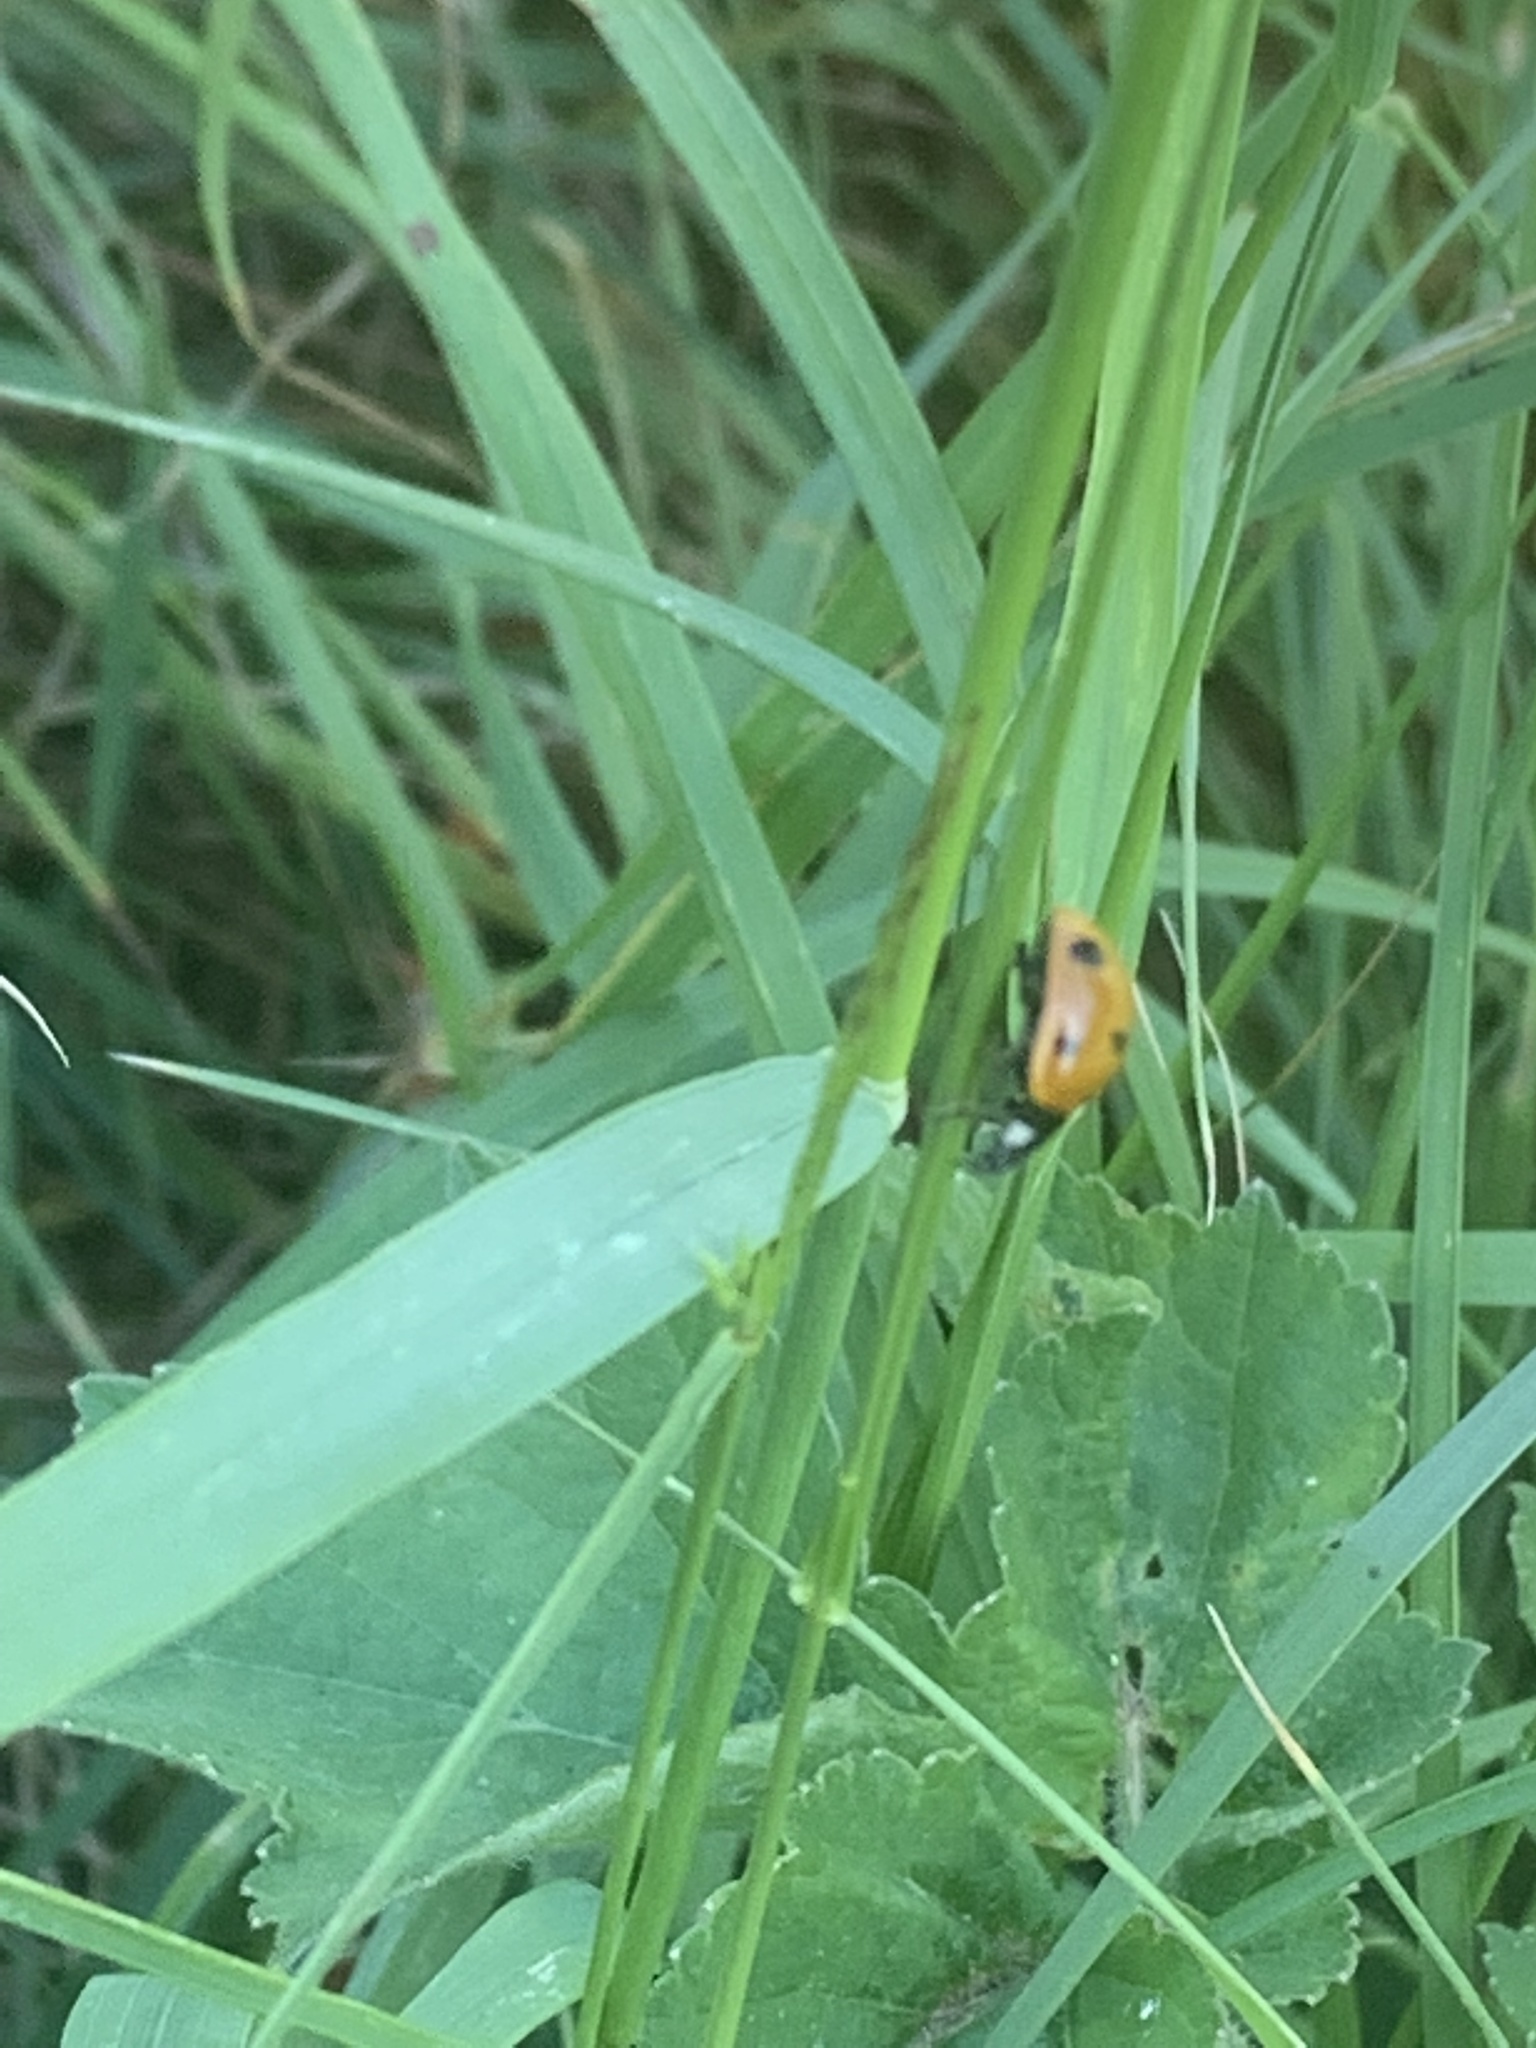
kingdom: Animalia
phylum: Arthropoda
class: Insecta
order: Coleoptera
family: Coccinellidae
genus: Coccinella
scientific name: Coccinella septempunctata
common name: Sevenspotted lady beetle
